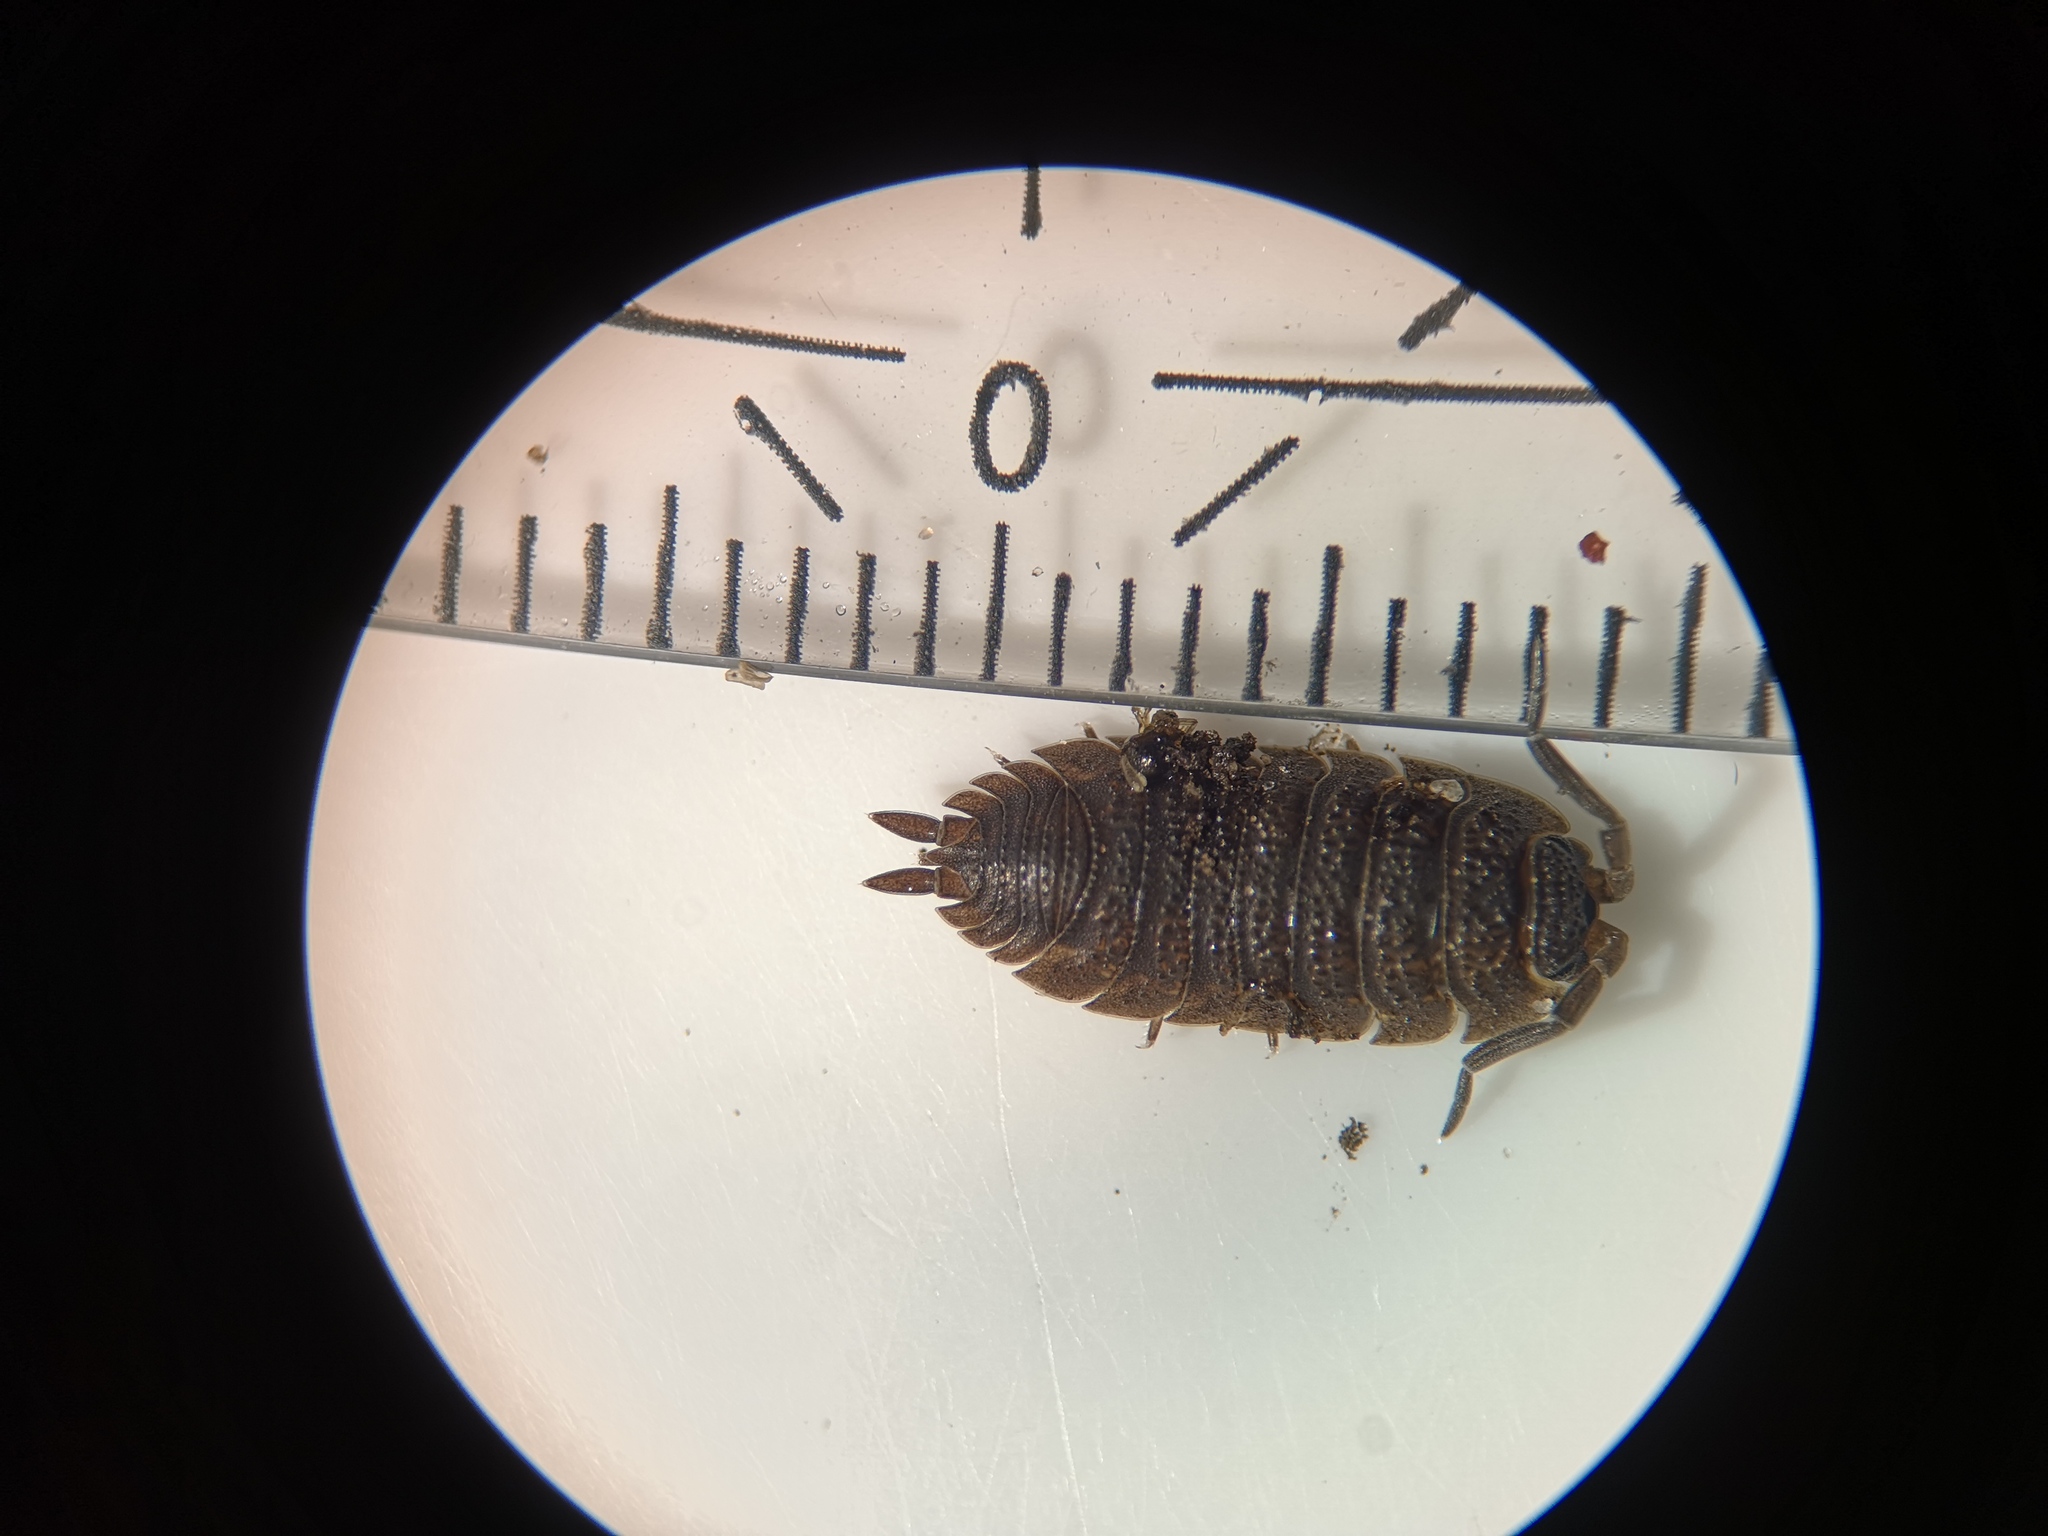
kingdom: Animalia
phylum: Arthropoda
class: Malacostraca
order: Isopoda
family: Porcellionidae
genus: Porcellio
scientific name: Porcellio scaber
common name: Common rough woodlouse
